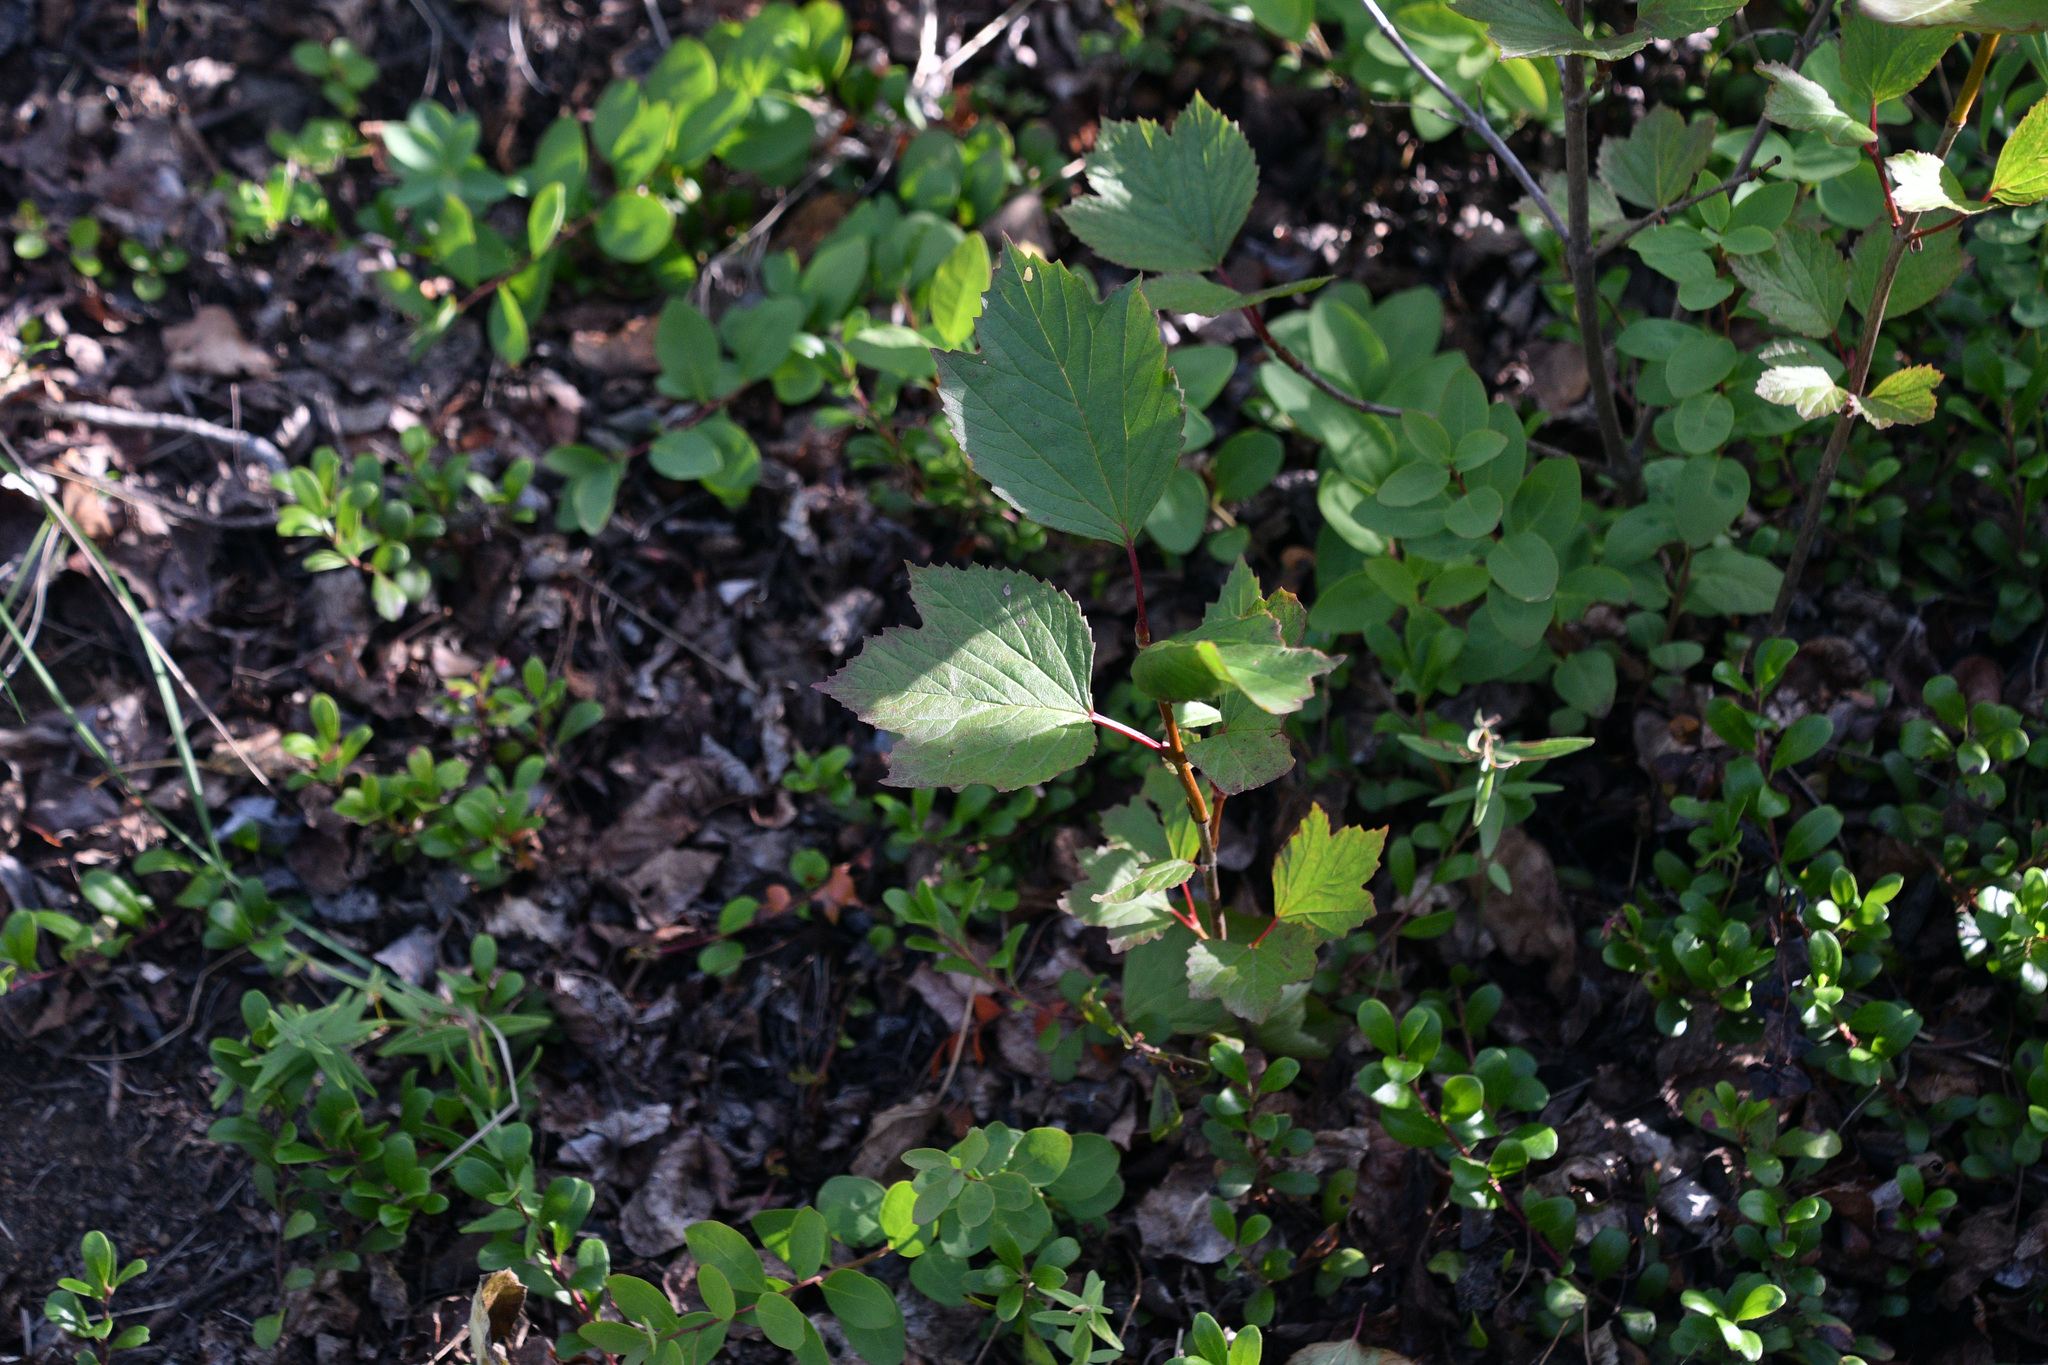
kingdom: Plantae
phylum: Tracheophyta
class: Magnoliopsida
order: Dipsacales
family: Viburnaceae
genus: Viburnum
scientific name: Viburnum edule
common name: Mooseberry
